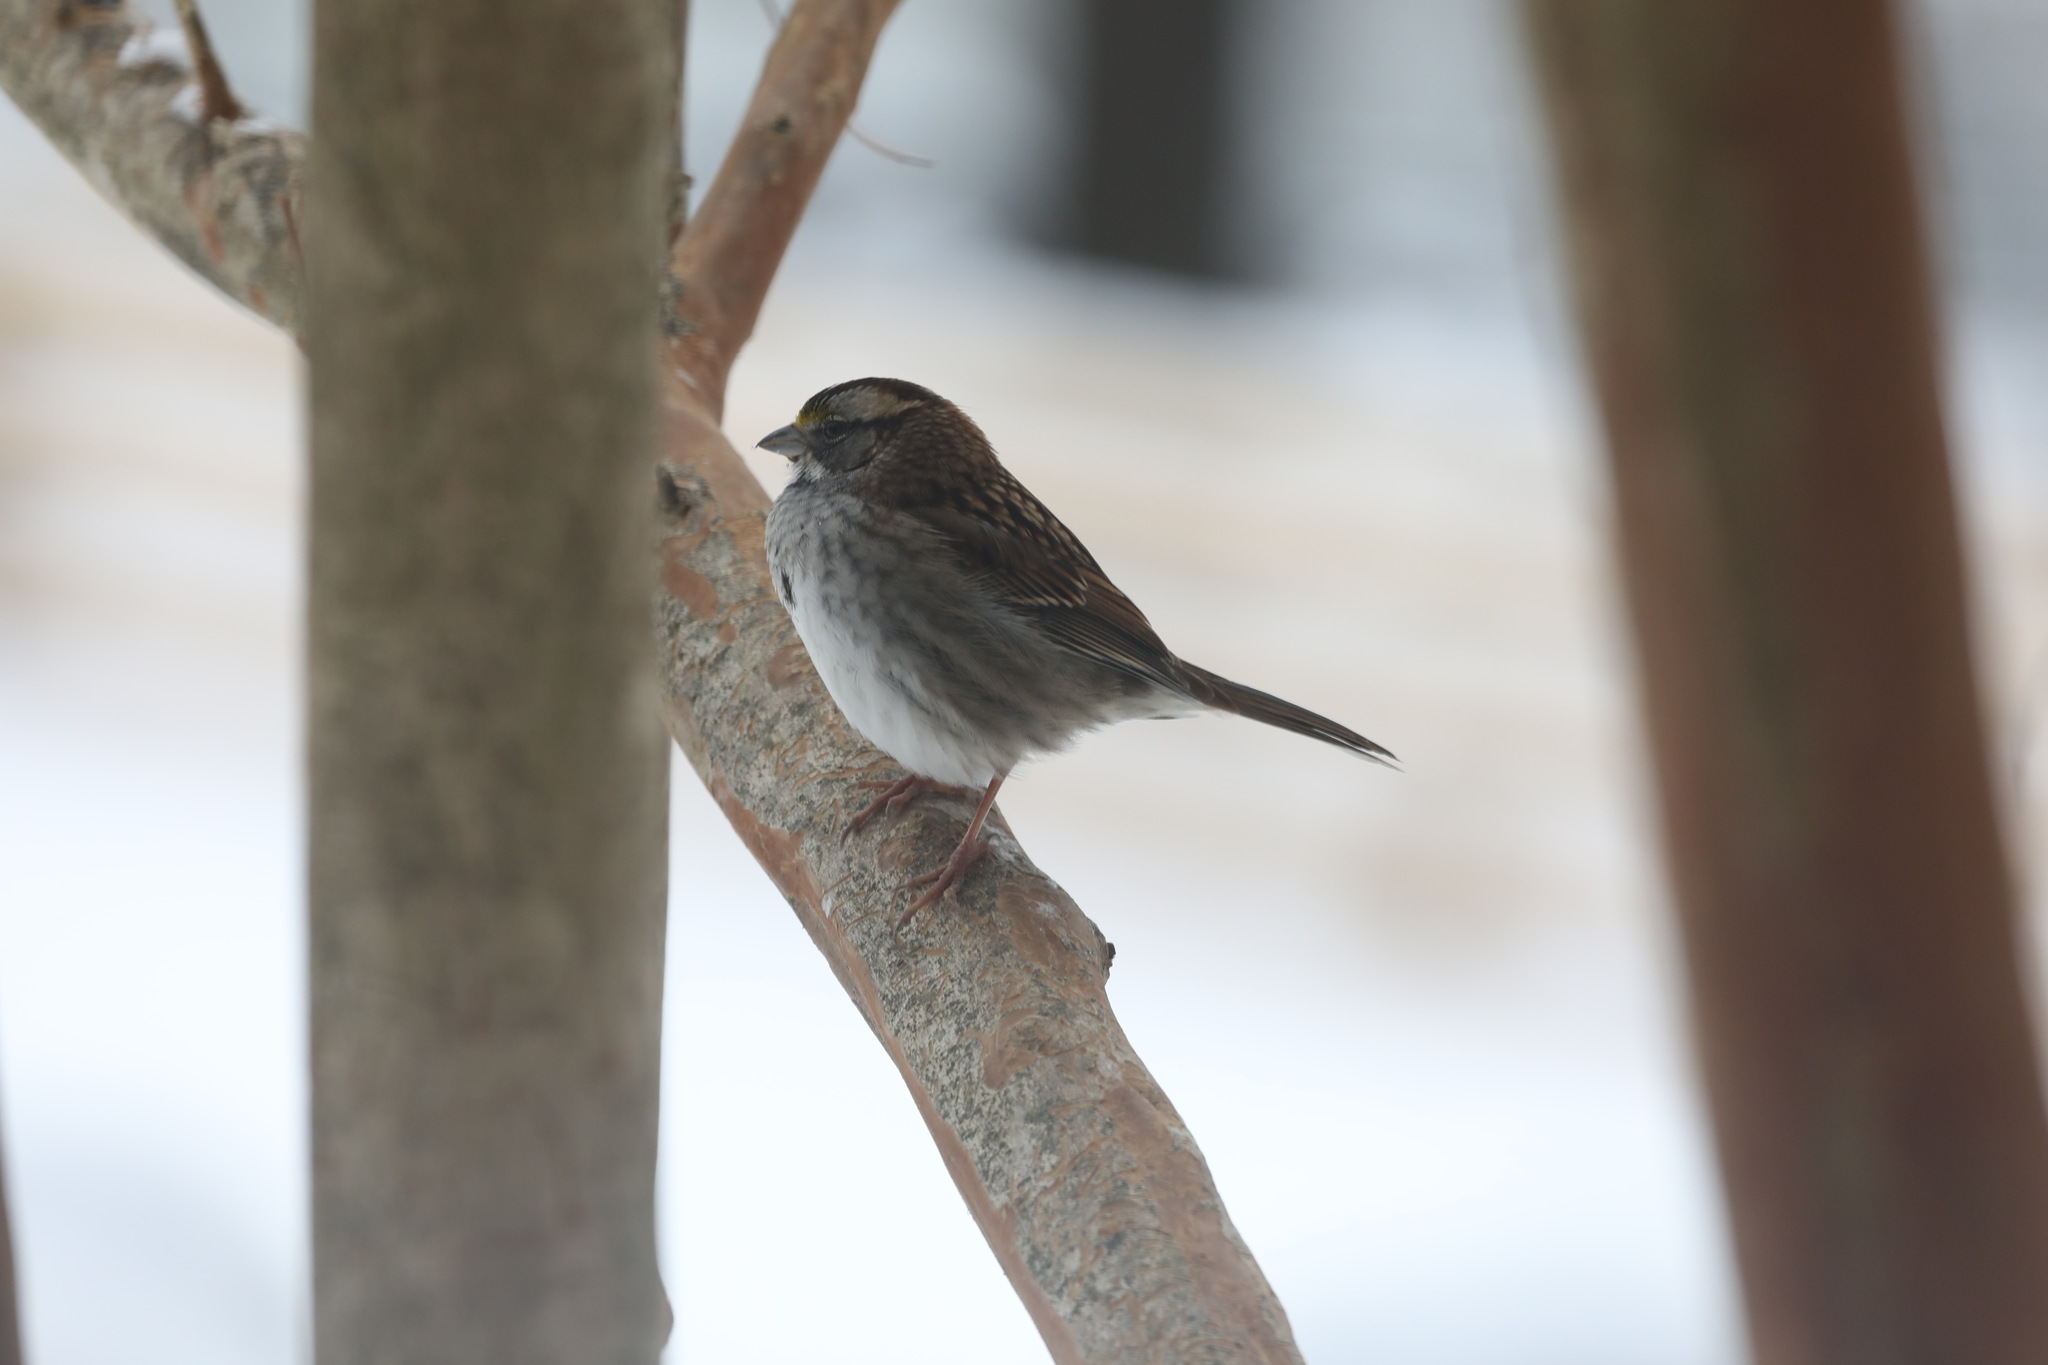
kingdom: Animalia
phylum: Chordata
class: Aves
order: Passeriformes
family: Passerellidae
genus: Zonotrichia
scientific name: Zonotrichia albicollis
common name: White-throated sparrow
